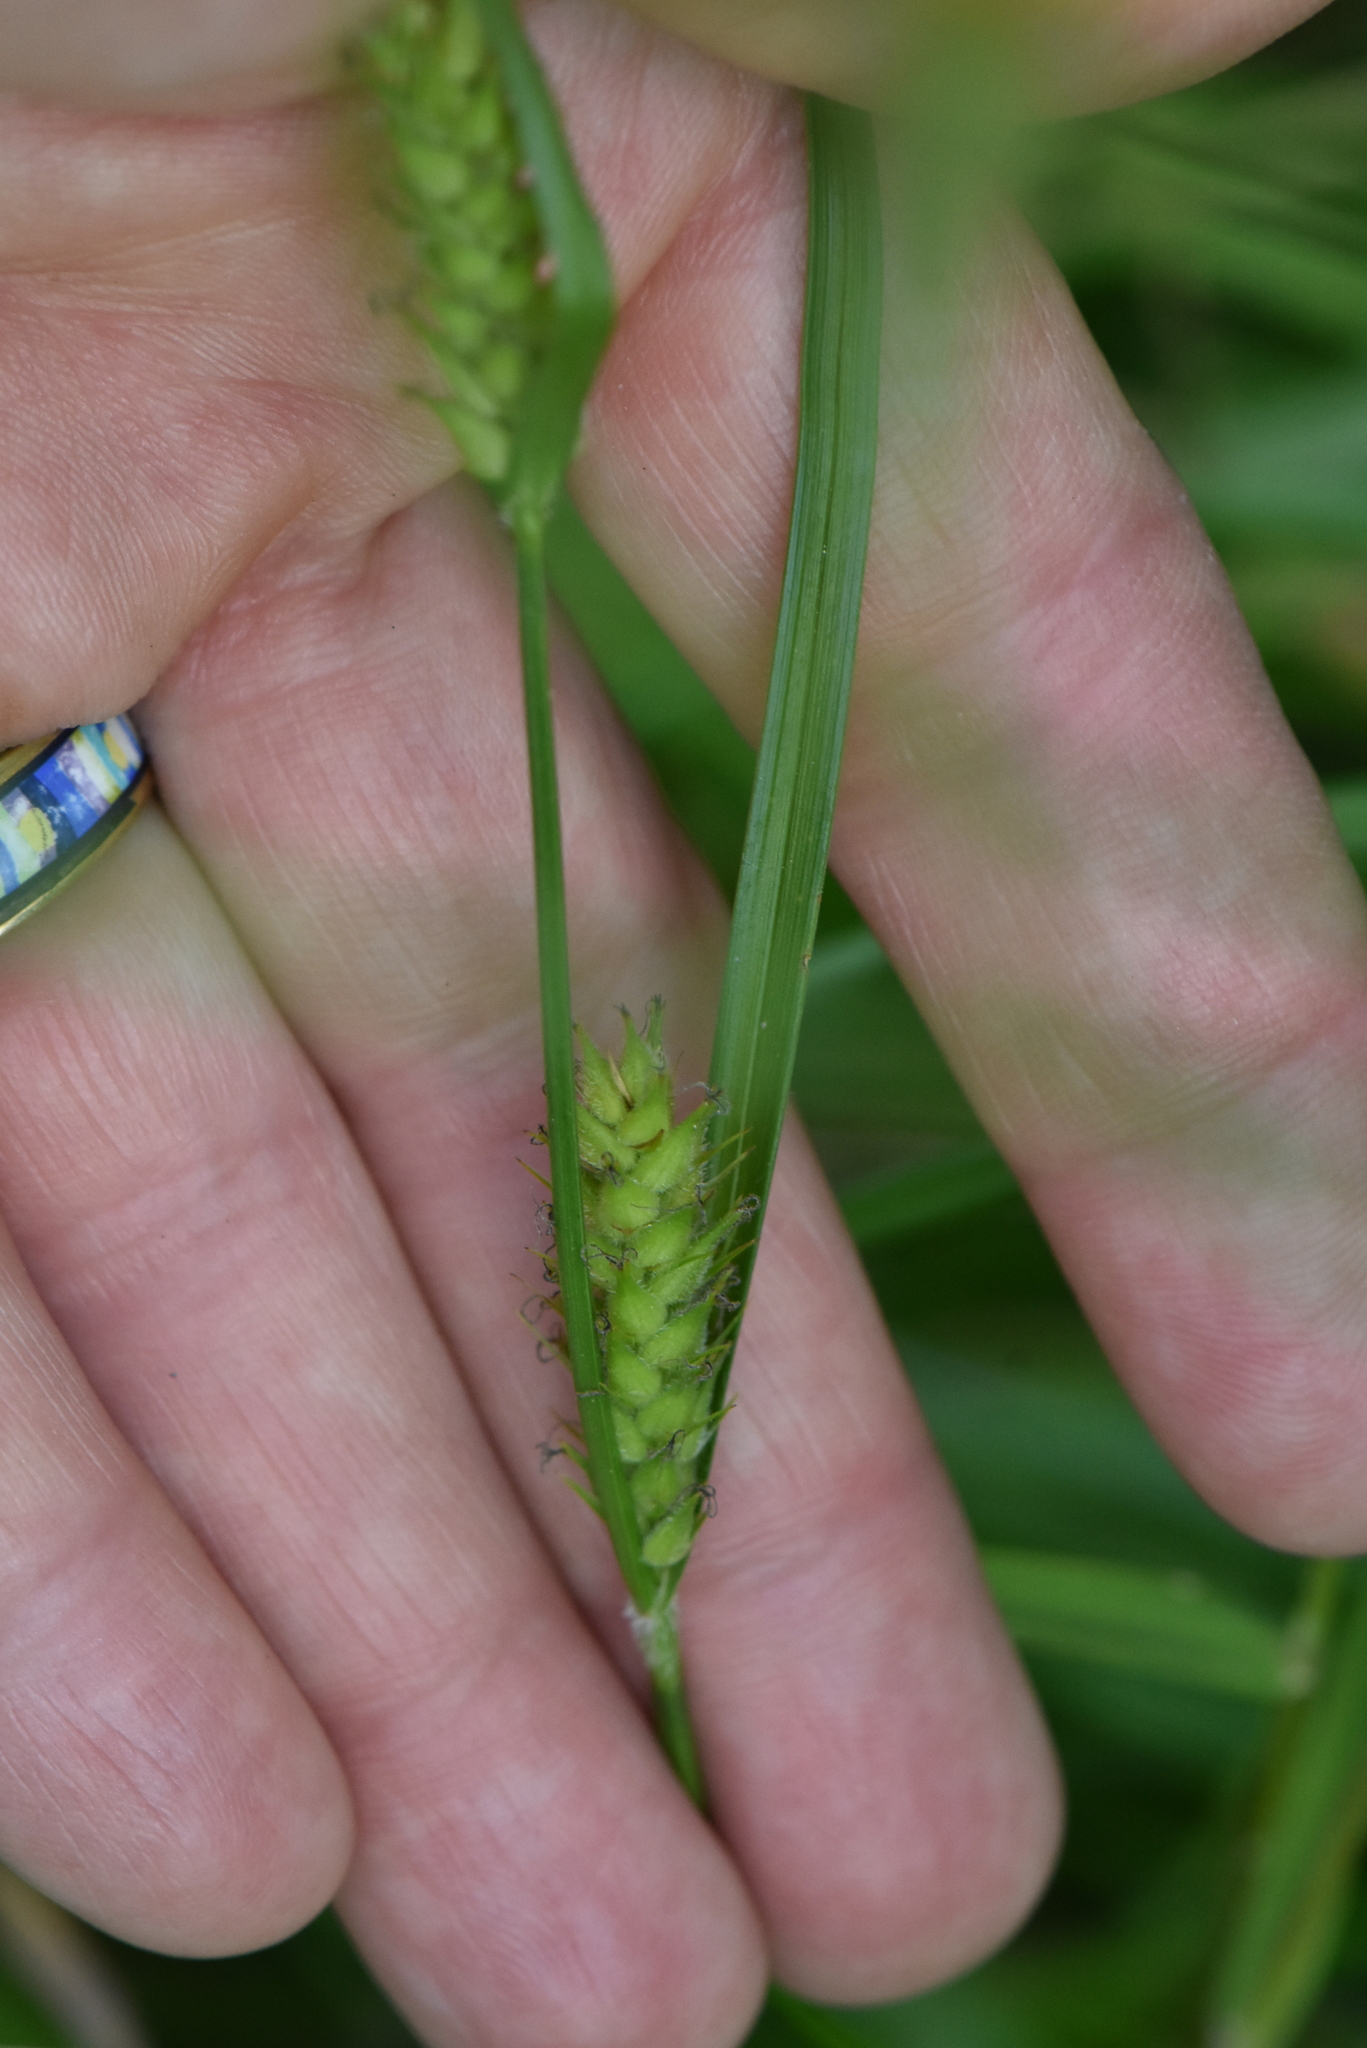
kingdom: Plantae
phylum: Tracheophyta
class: Liliopsida
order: Poales
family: Cyperaceae
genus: Carex
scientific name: Carex hirta
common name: Hairy sedge
